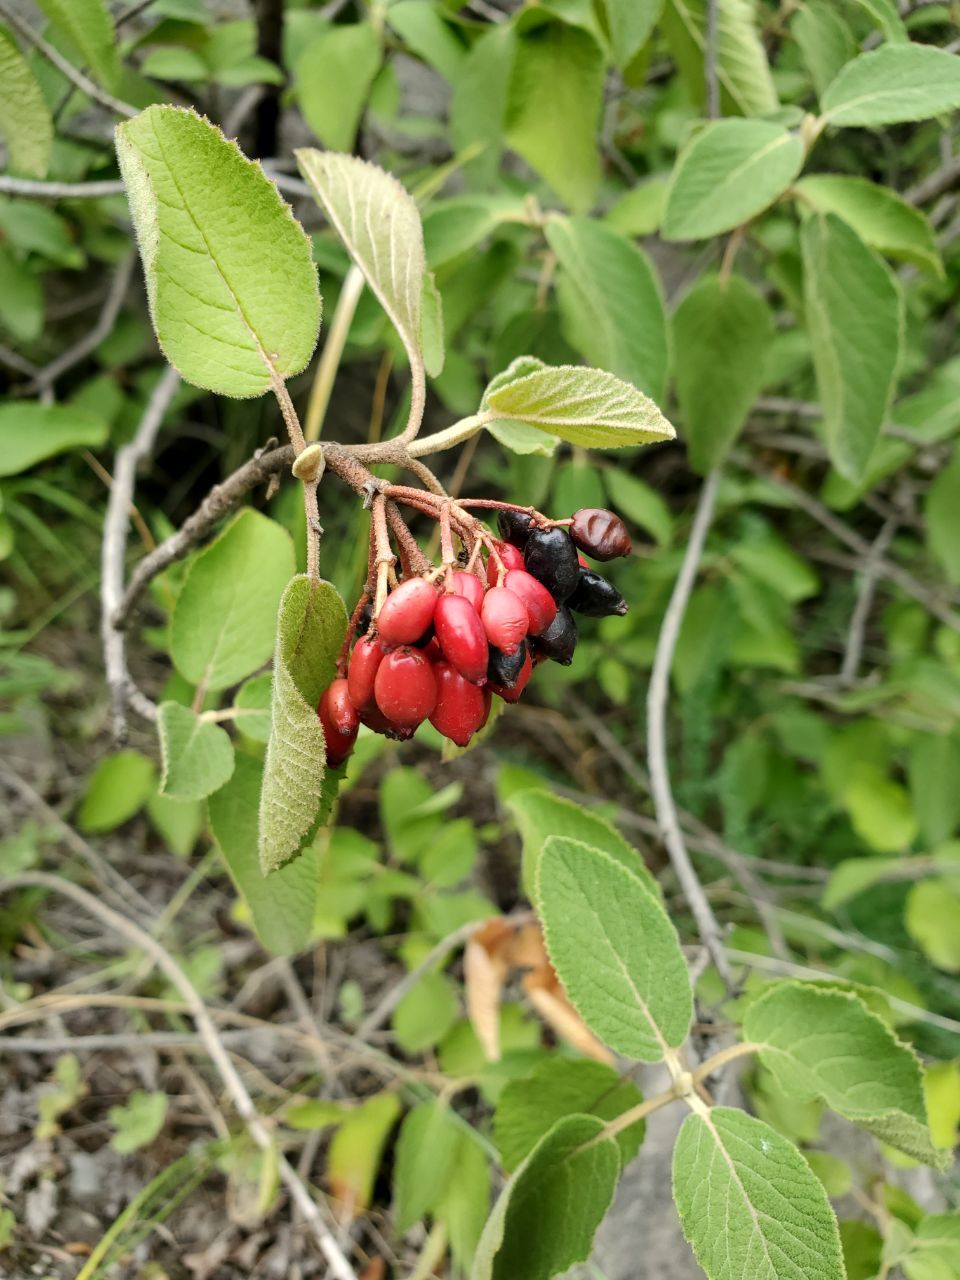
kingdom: Plantae
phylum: Tracheophyta
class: Magnoliopsida
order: Dipsacales
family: Viburnaceae
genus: Viburnum
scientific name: Viburnum lantana
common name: Wayfaring tree
